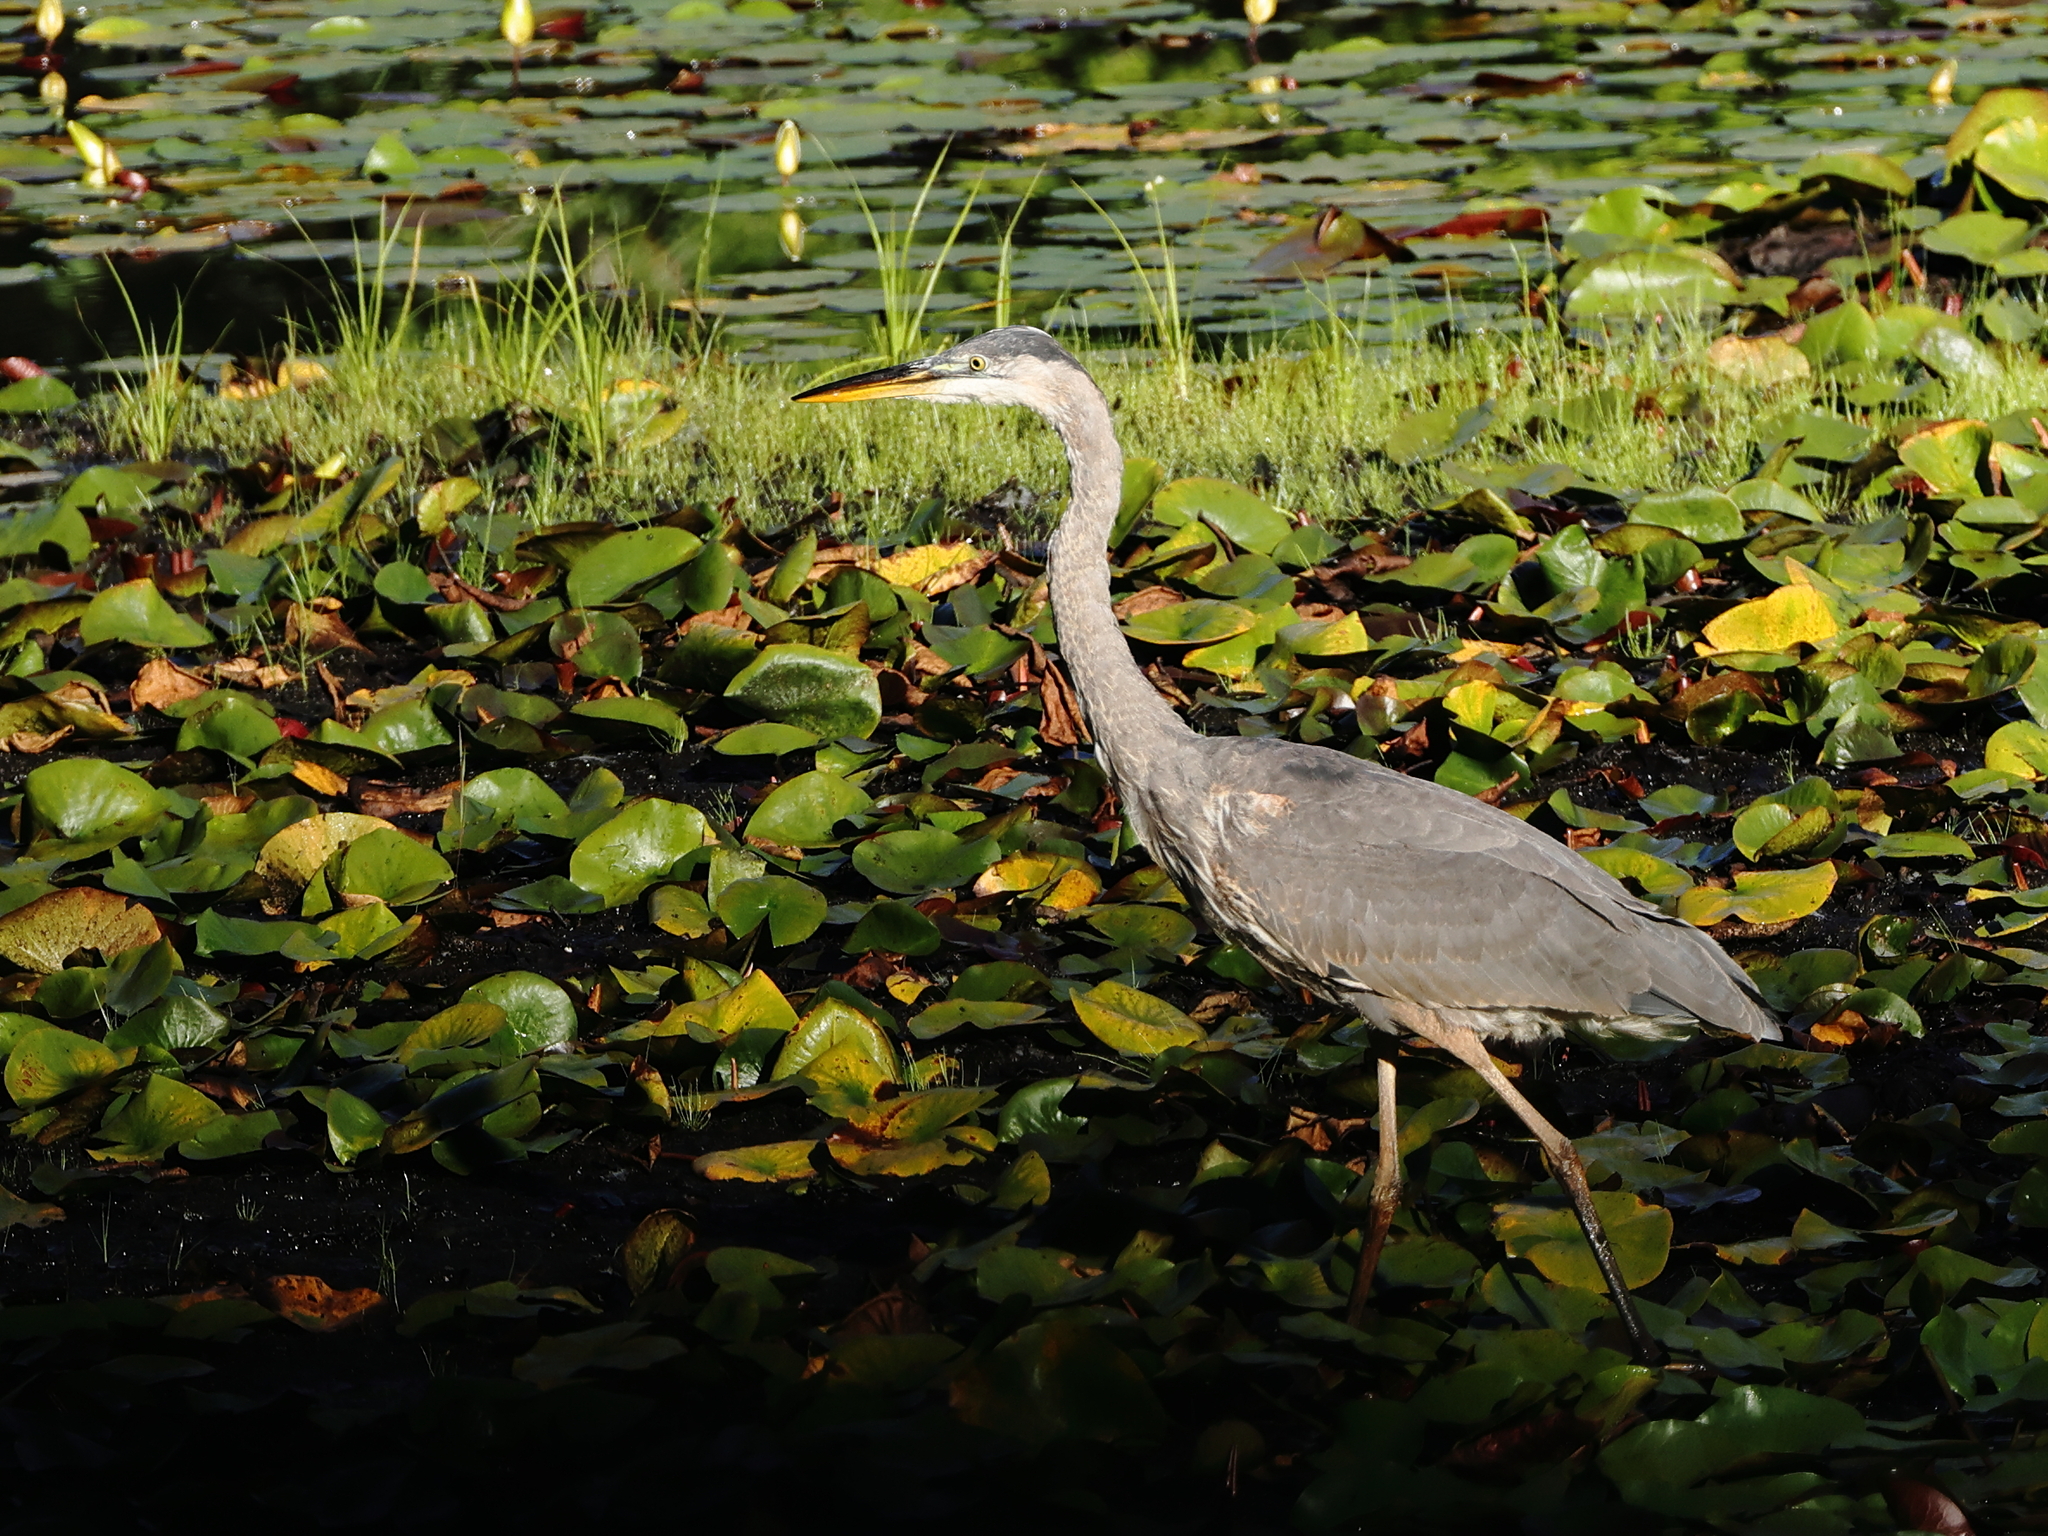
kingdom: Animalia
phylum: Chordata
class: Aves
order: Pelecaniformes
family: Ardeidae
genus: Ardea
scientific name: Ardea herodias
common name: Great blue heron
